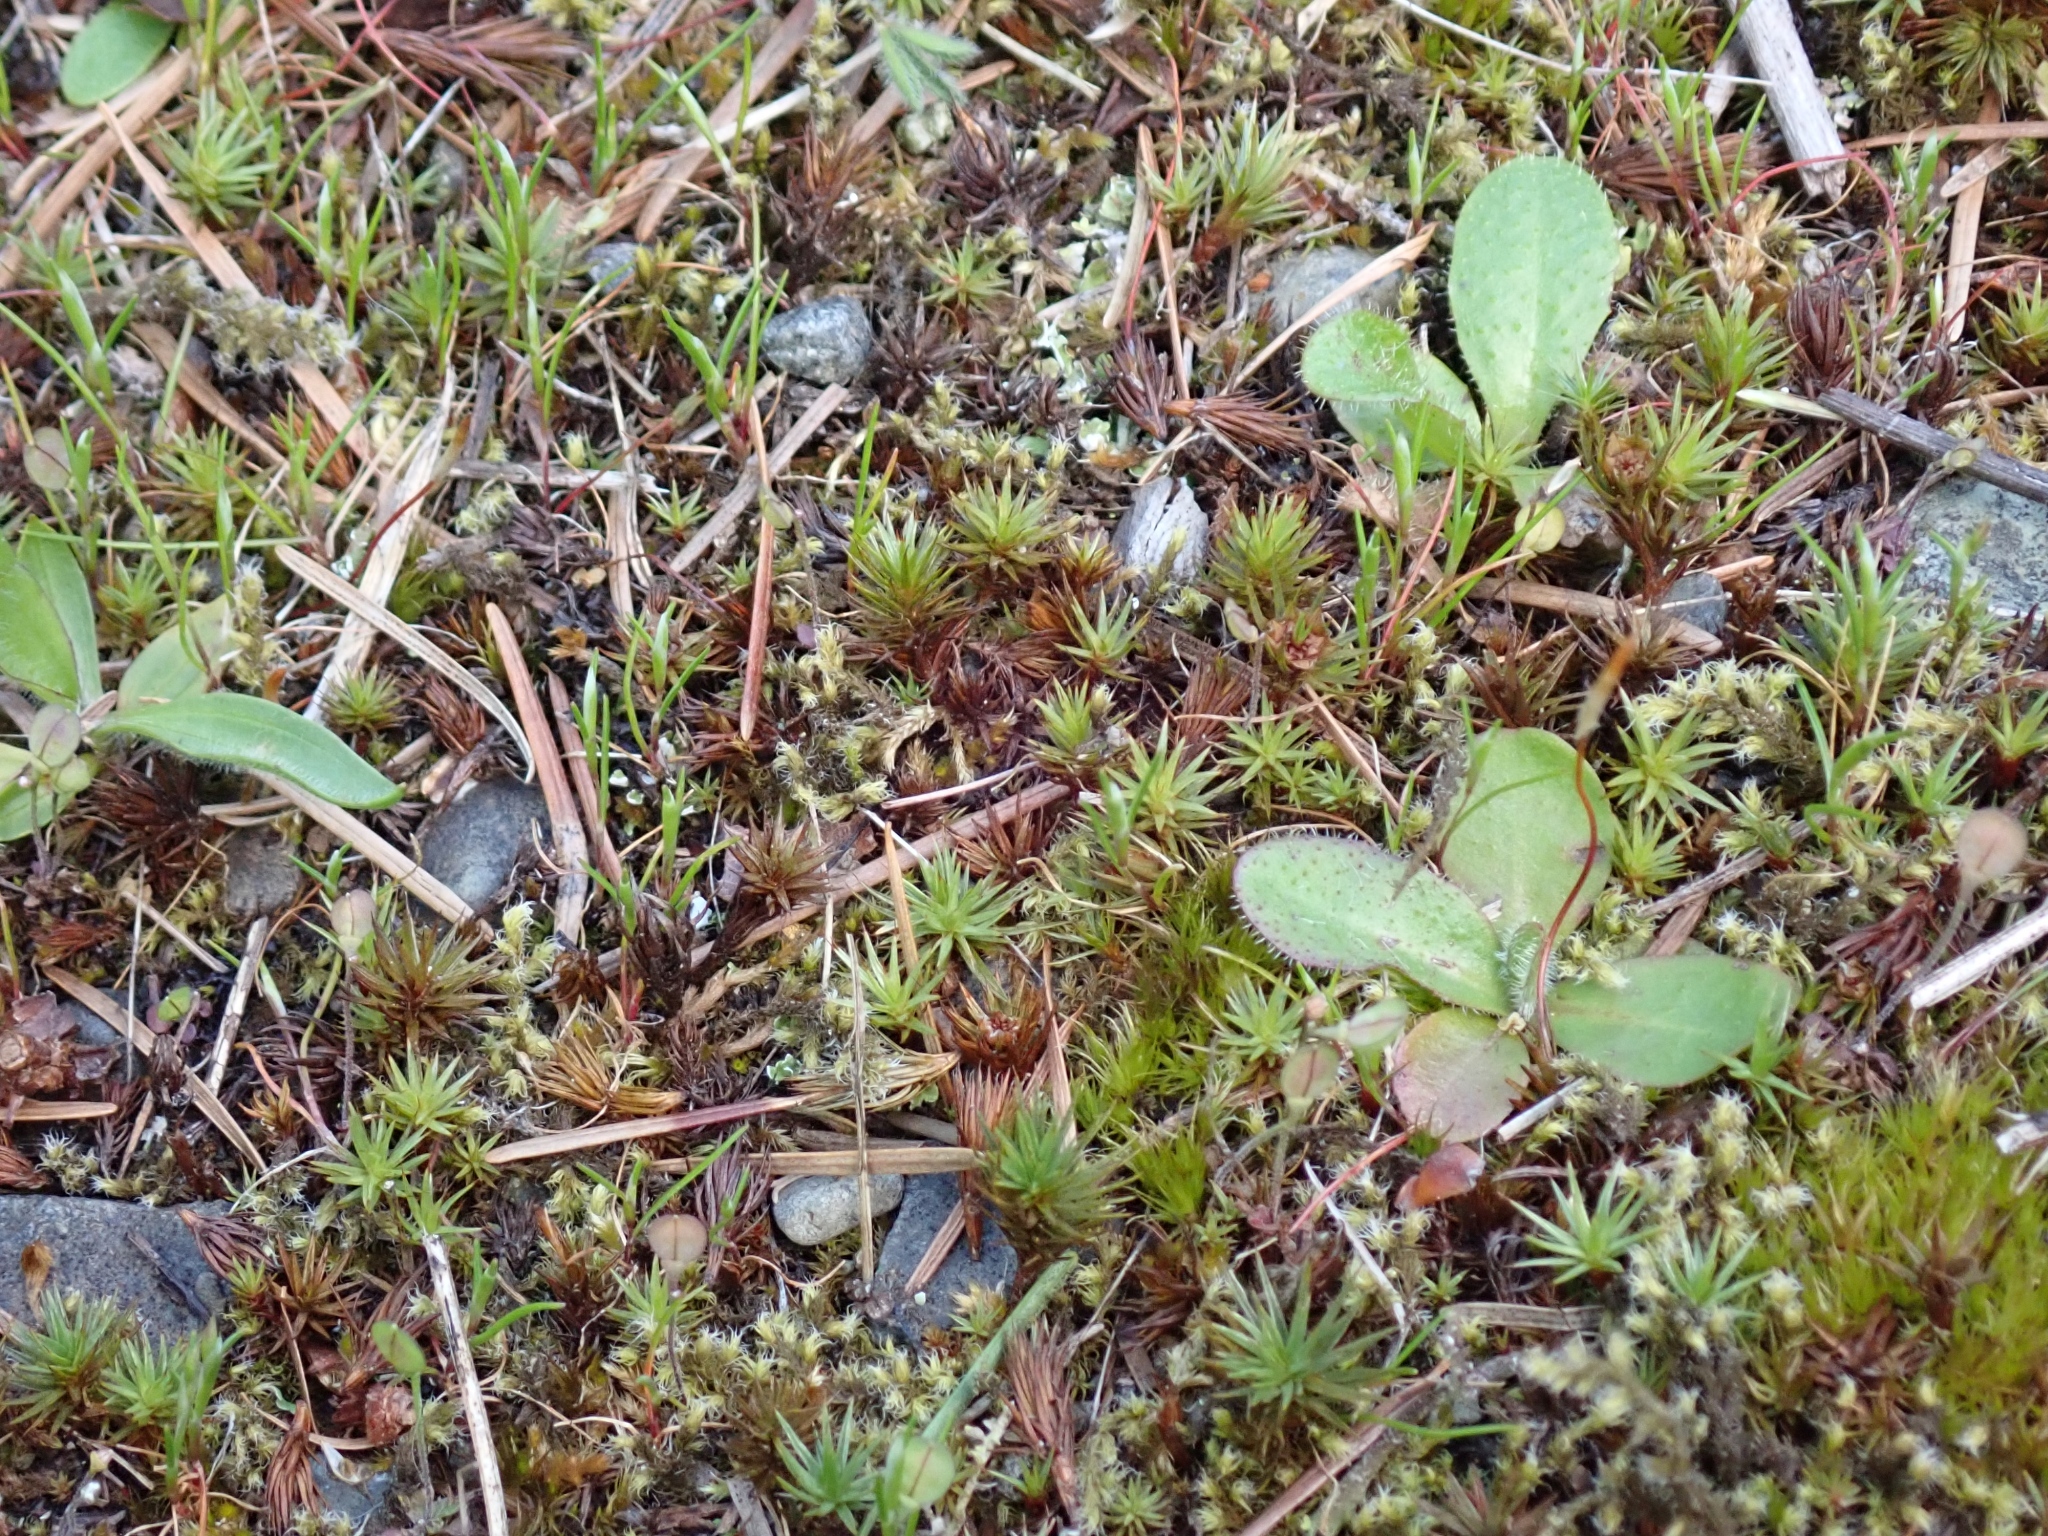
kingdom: Plantae
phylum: Bryophyta
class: Polytrichopsida
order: Polytrichales
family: Polytrichaceae
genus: Polytrichum
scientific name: Polytrichum juniperinum
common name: Juniper haircap moss
